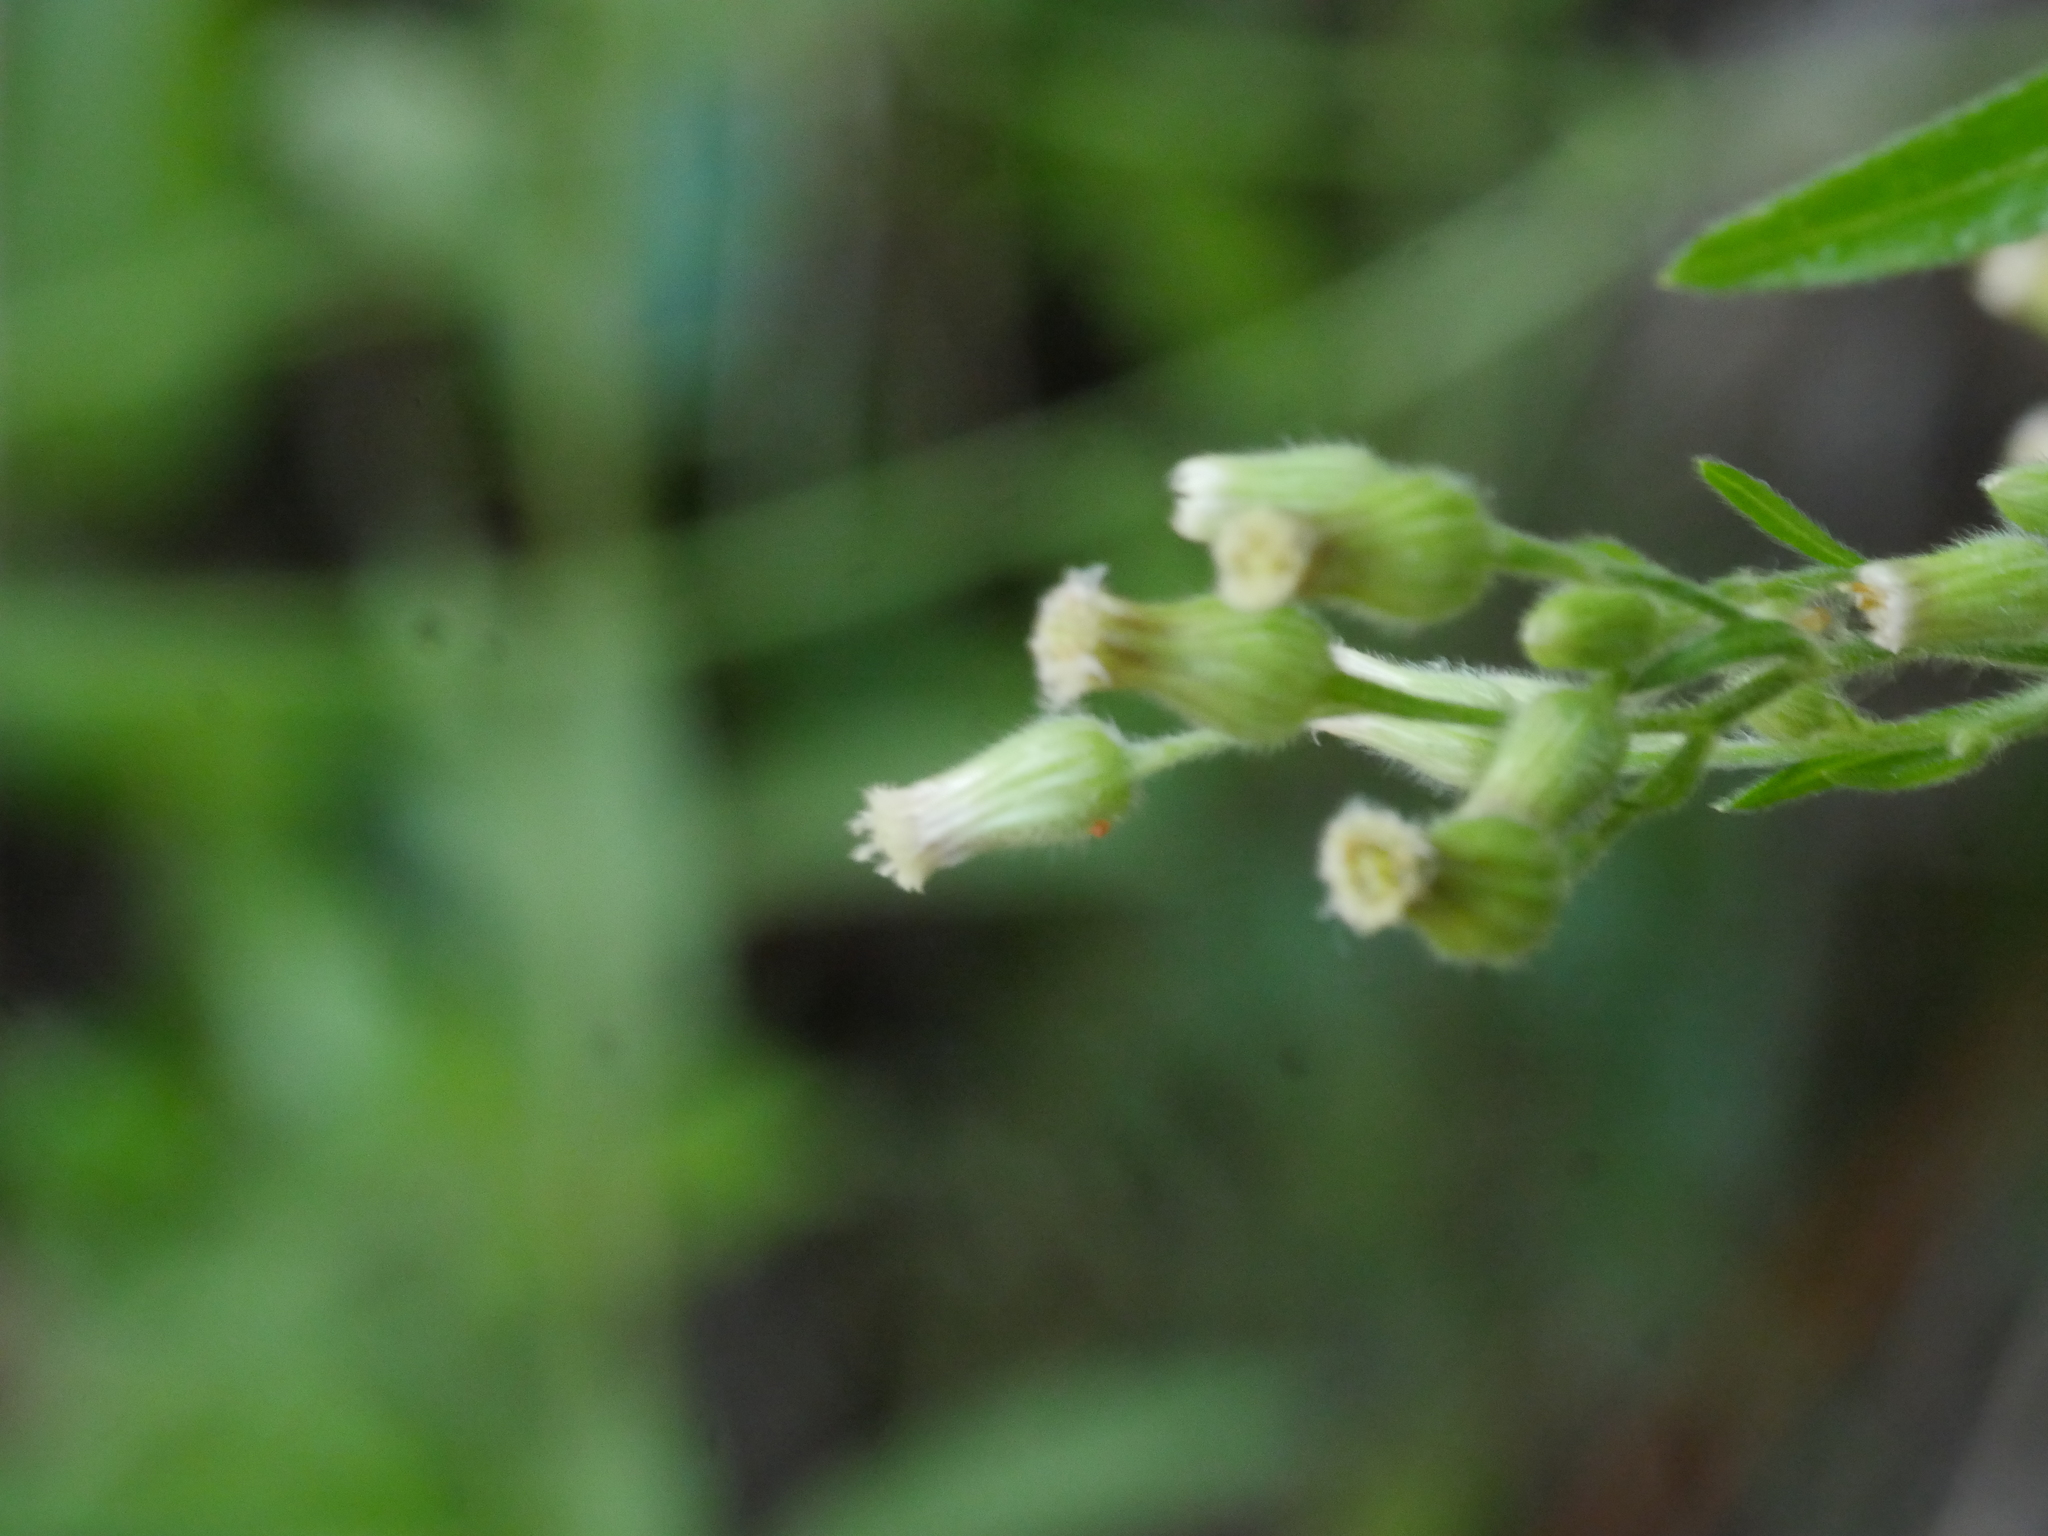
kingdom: Plantae
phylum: Tracheophyta
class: Magnoliopsida
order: Asterales
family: Asteraceae
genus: Erigeron
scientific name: Erigeron sumatrensis
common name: Daisy
